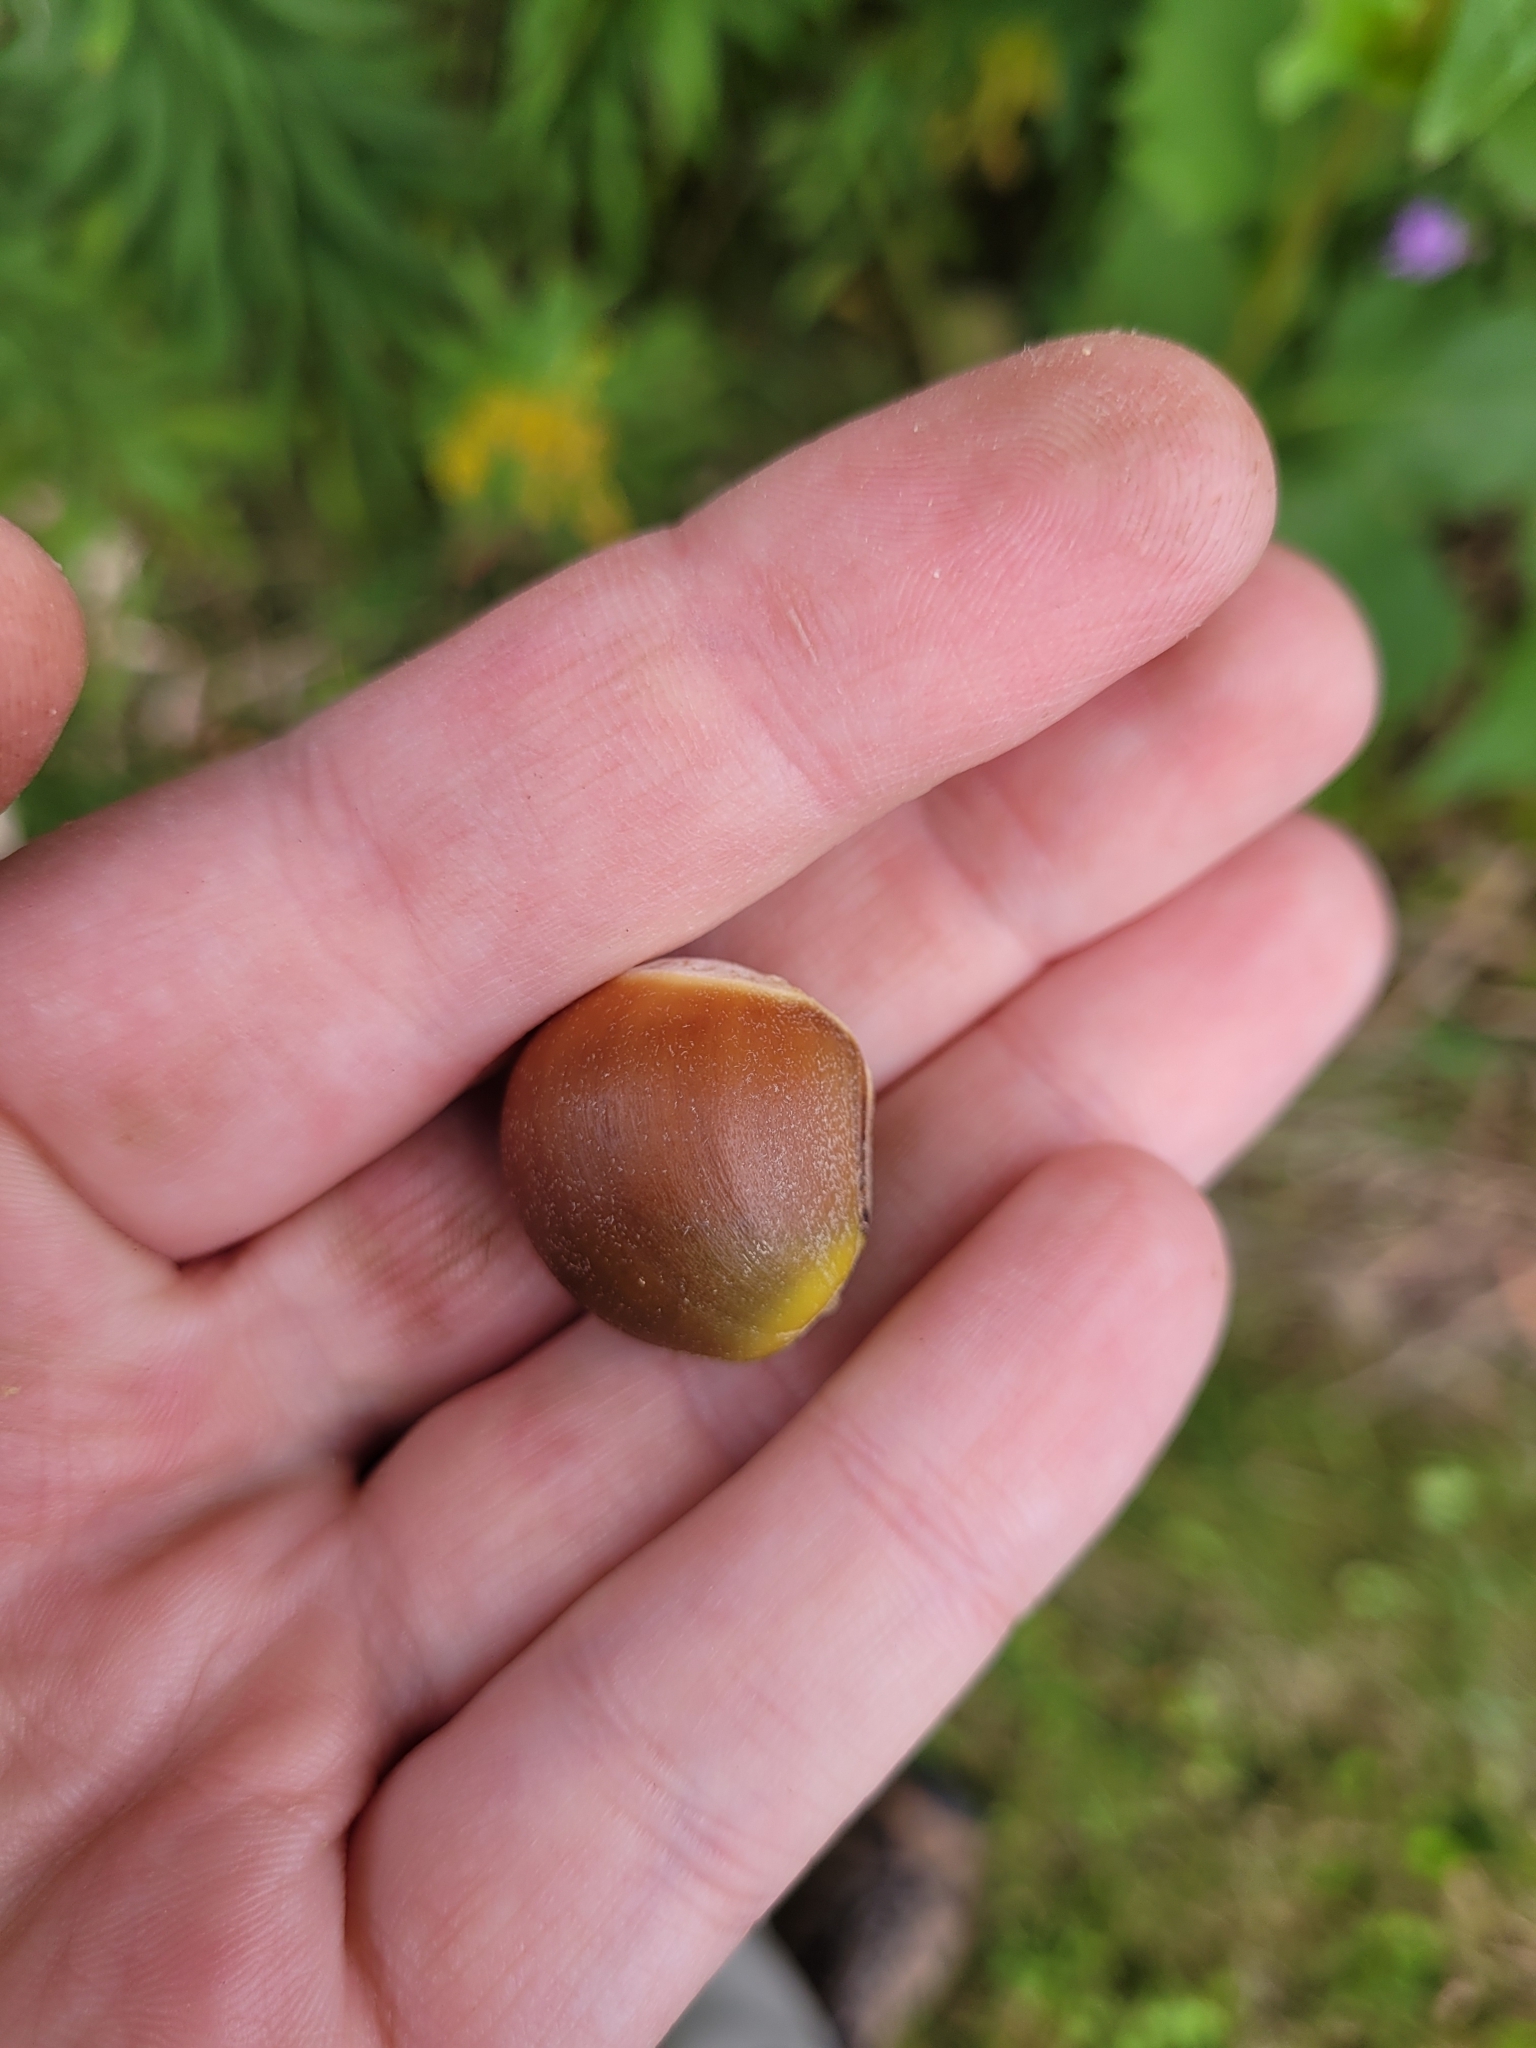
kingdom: Animalia
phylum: Arthropoda
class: Insecta
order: Hymenoptera
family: Cynipidae
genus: Callirhytis
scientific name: Callirhytis
